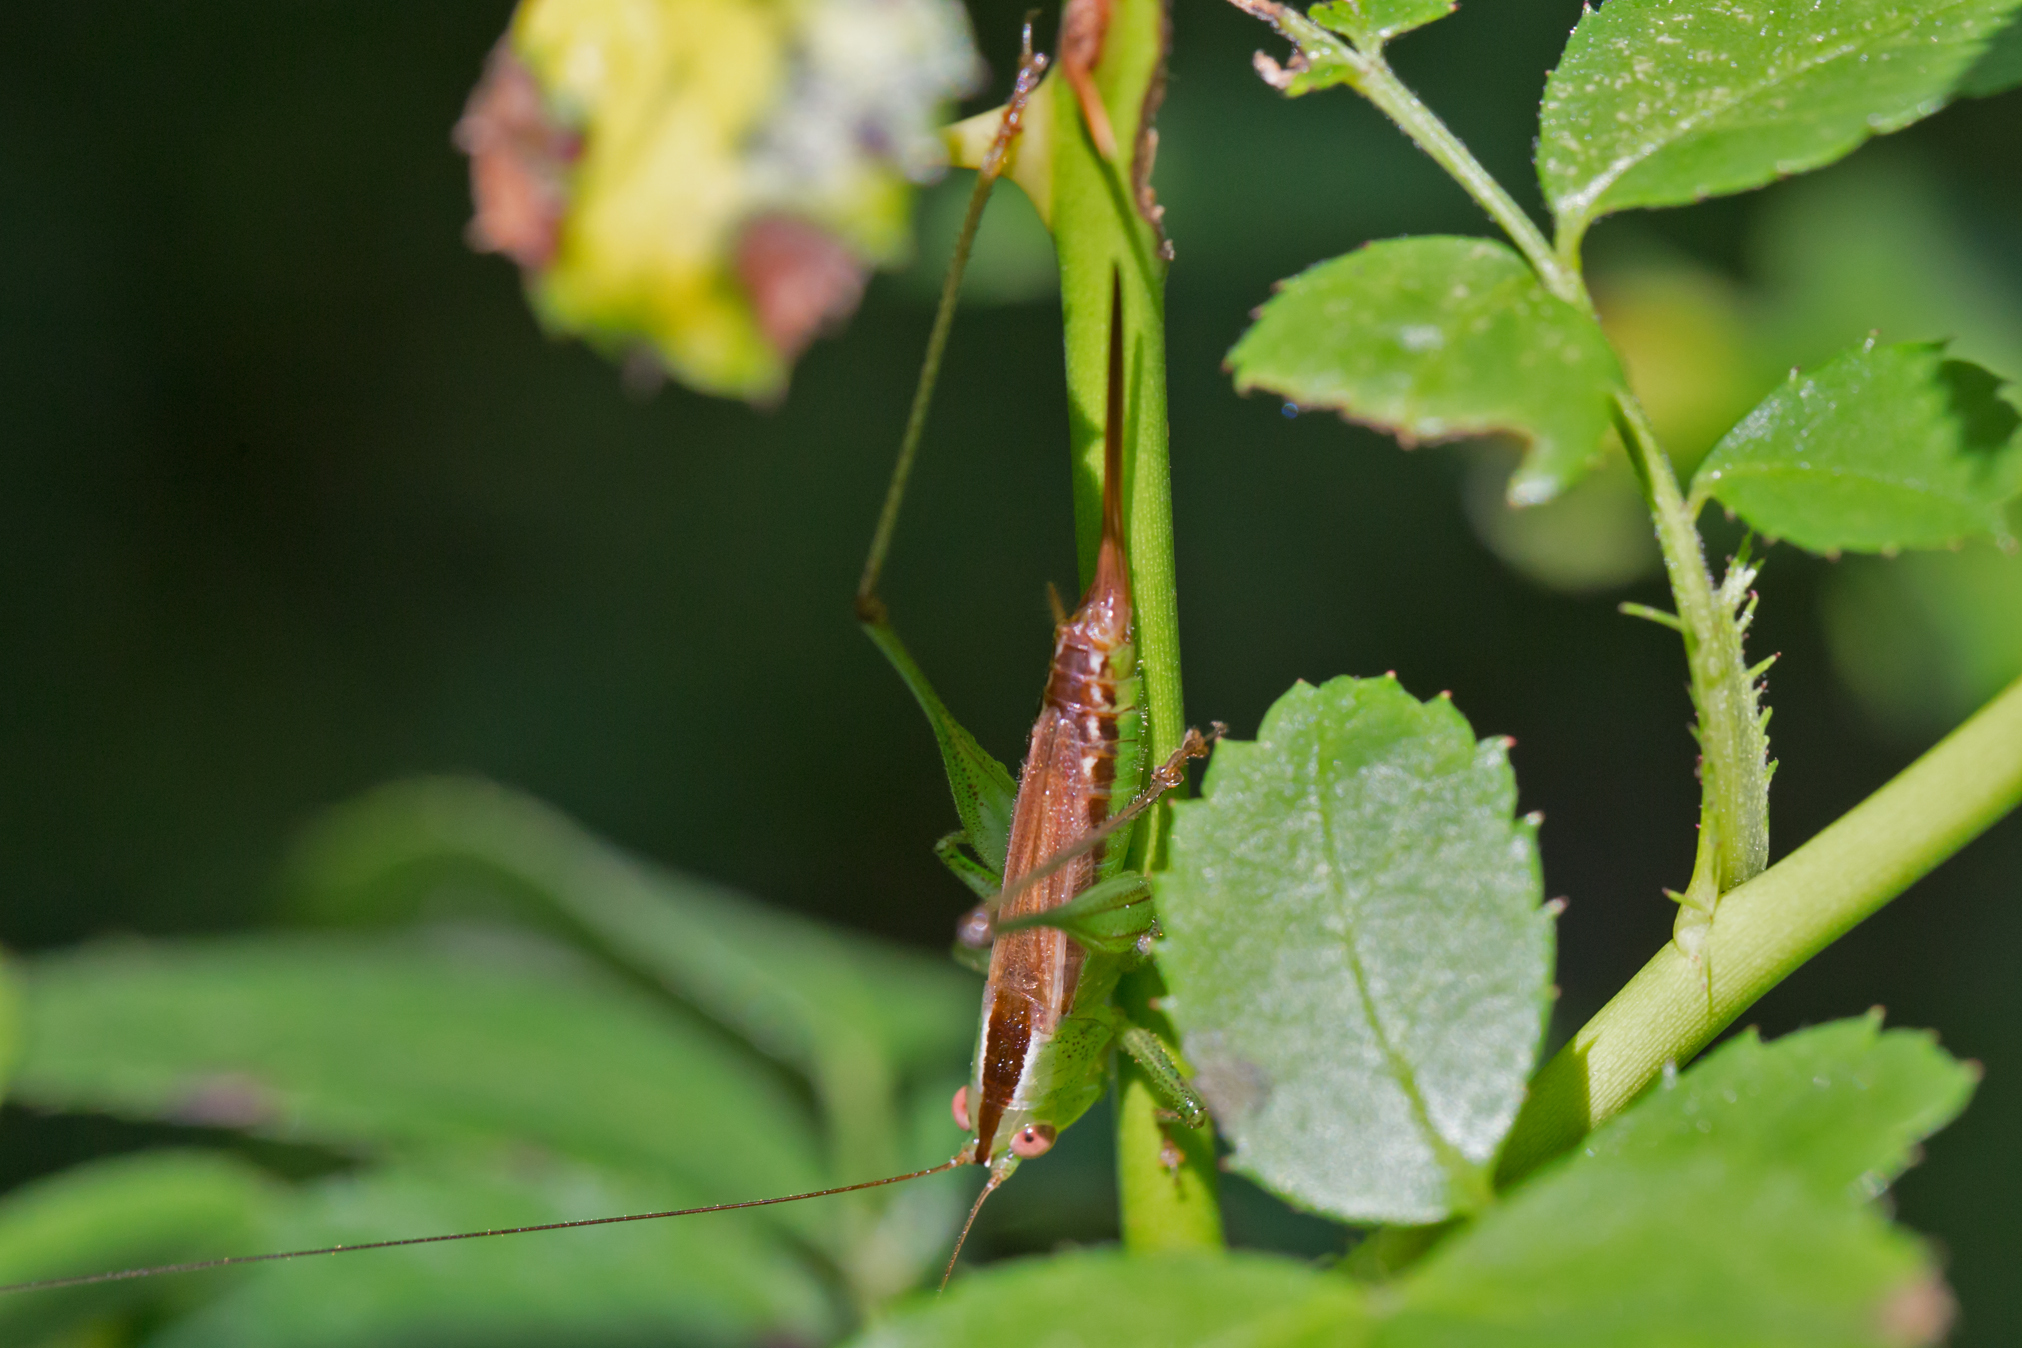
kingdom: Animalia
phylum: Arthropoda
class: Insecta
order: Orthoptera
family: Tettigoniidae
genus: Conocephalus
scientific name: Conocephalus brevipennis
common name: Short-winged meadow katydid
